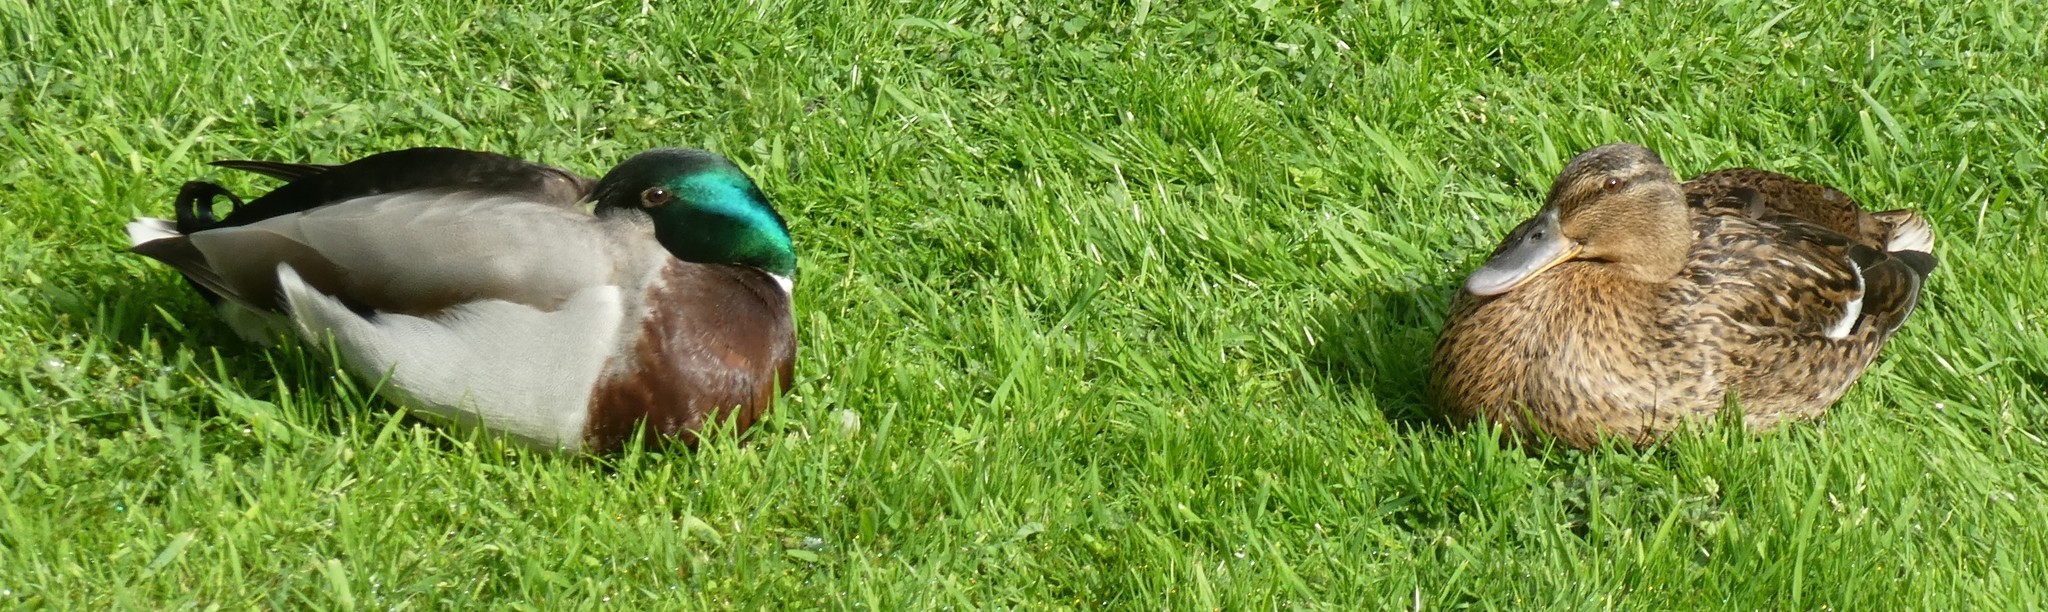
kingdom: Animalia
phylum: Chordata
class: Aves
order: Anseriformes
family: Anatidae
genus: Anas
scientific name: Anas platyrhynchos
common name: Mallard
